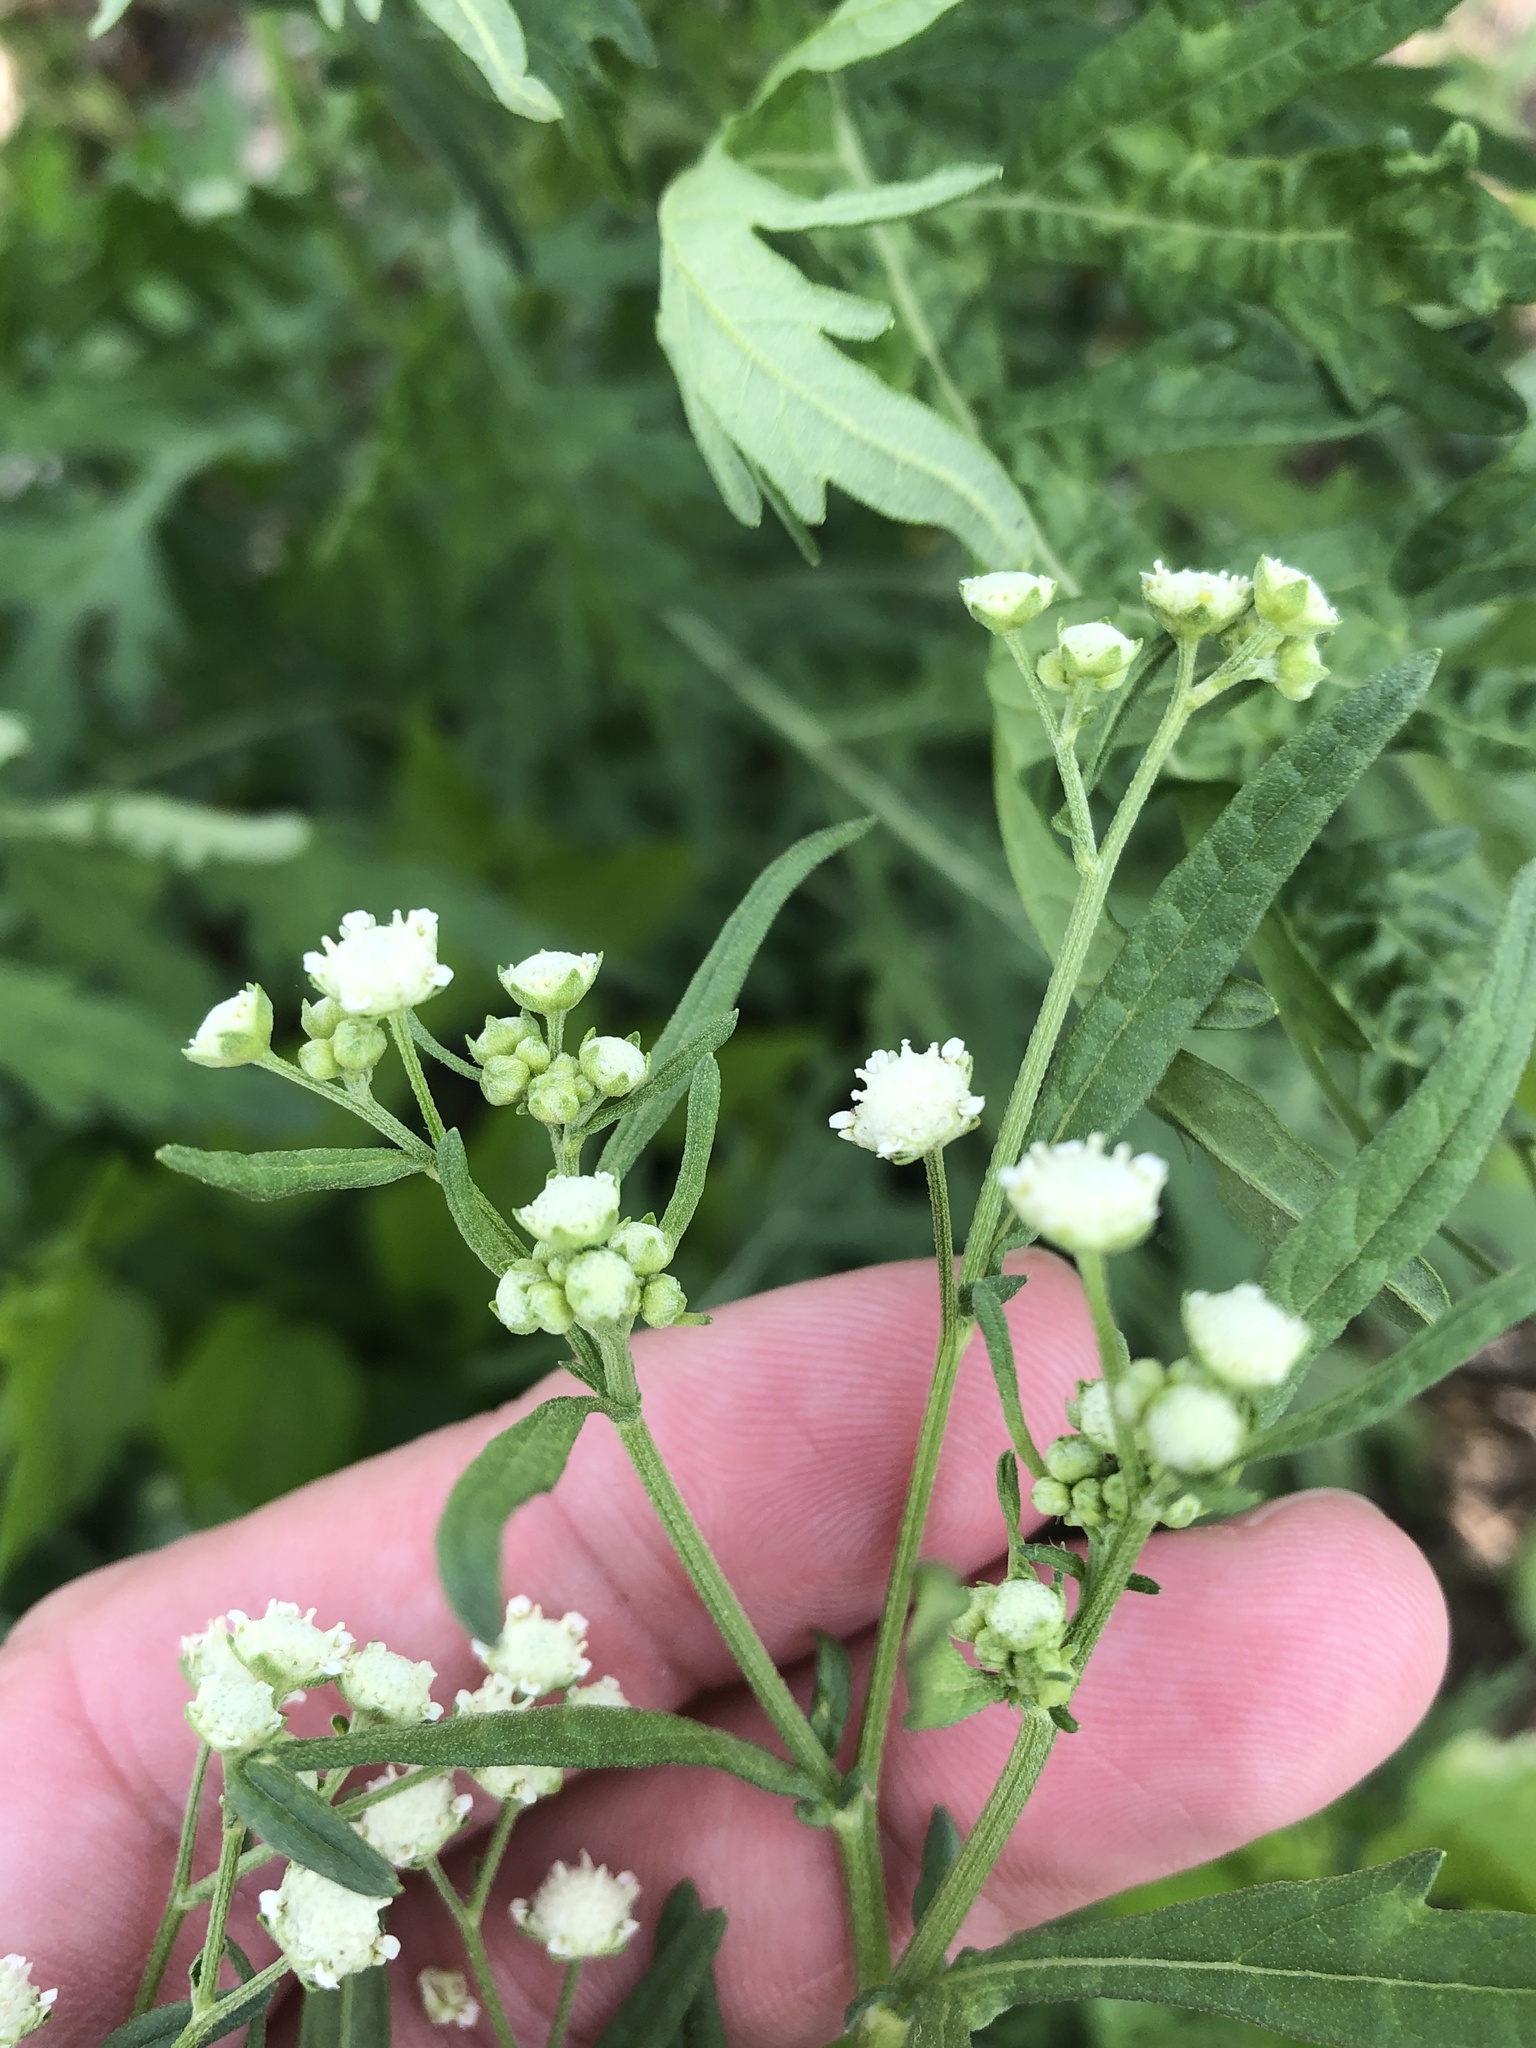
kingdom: Plantae
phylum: Tracheophyta
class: Magnoliopsida
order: Asterales
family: Asteraceae
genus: Parthenium
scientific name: Parthenium hysterophorus
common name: Santa maria feverfew
